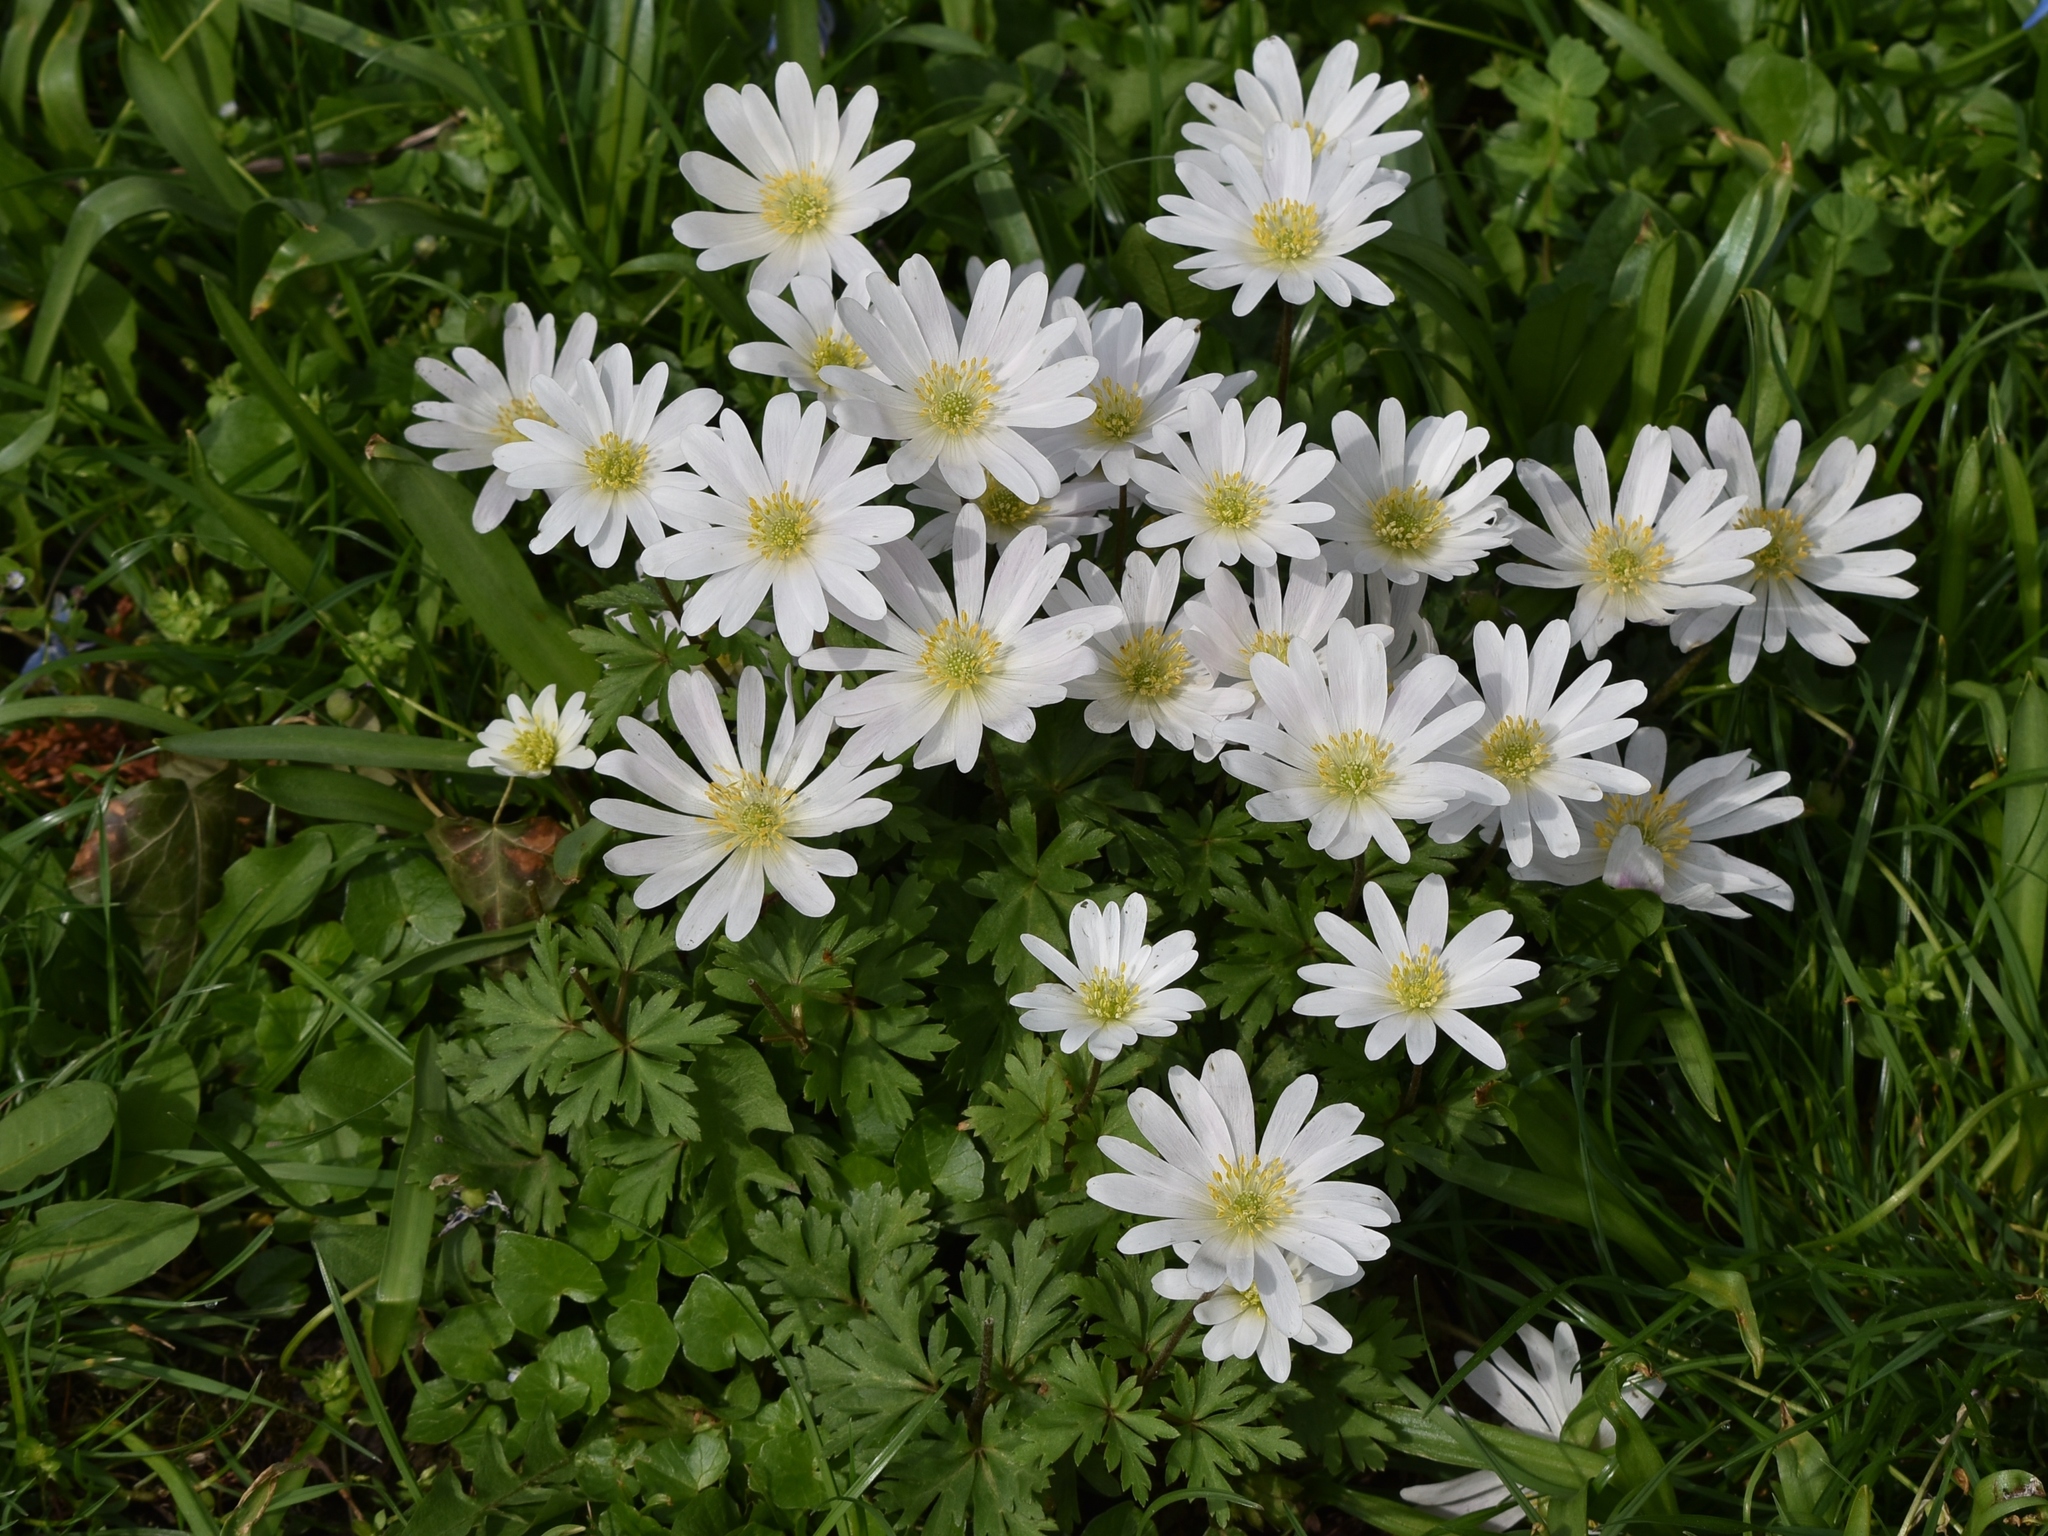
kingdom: Plantae
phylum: Tracheophyta
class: Magnoliopsida
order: Ranunculales
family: Ranunculaceae
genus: Anemone
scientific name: Anemone blanda
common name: Balkan anemone
